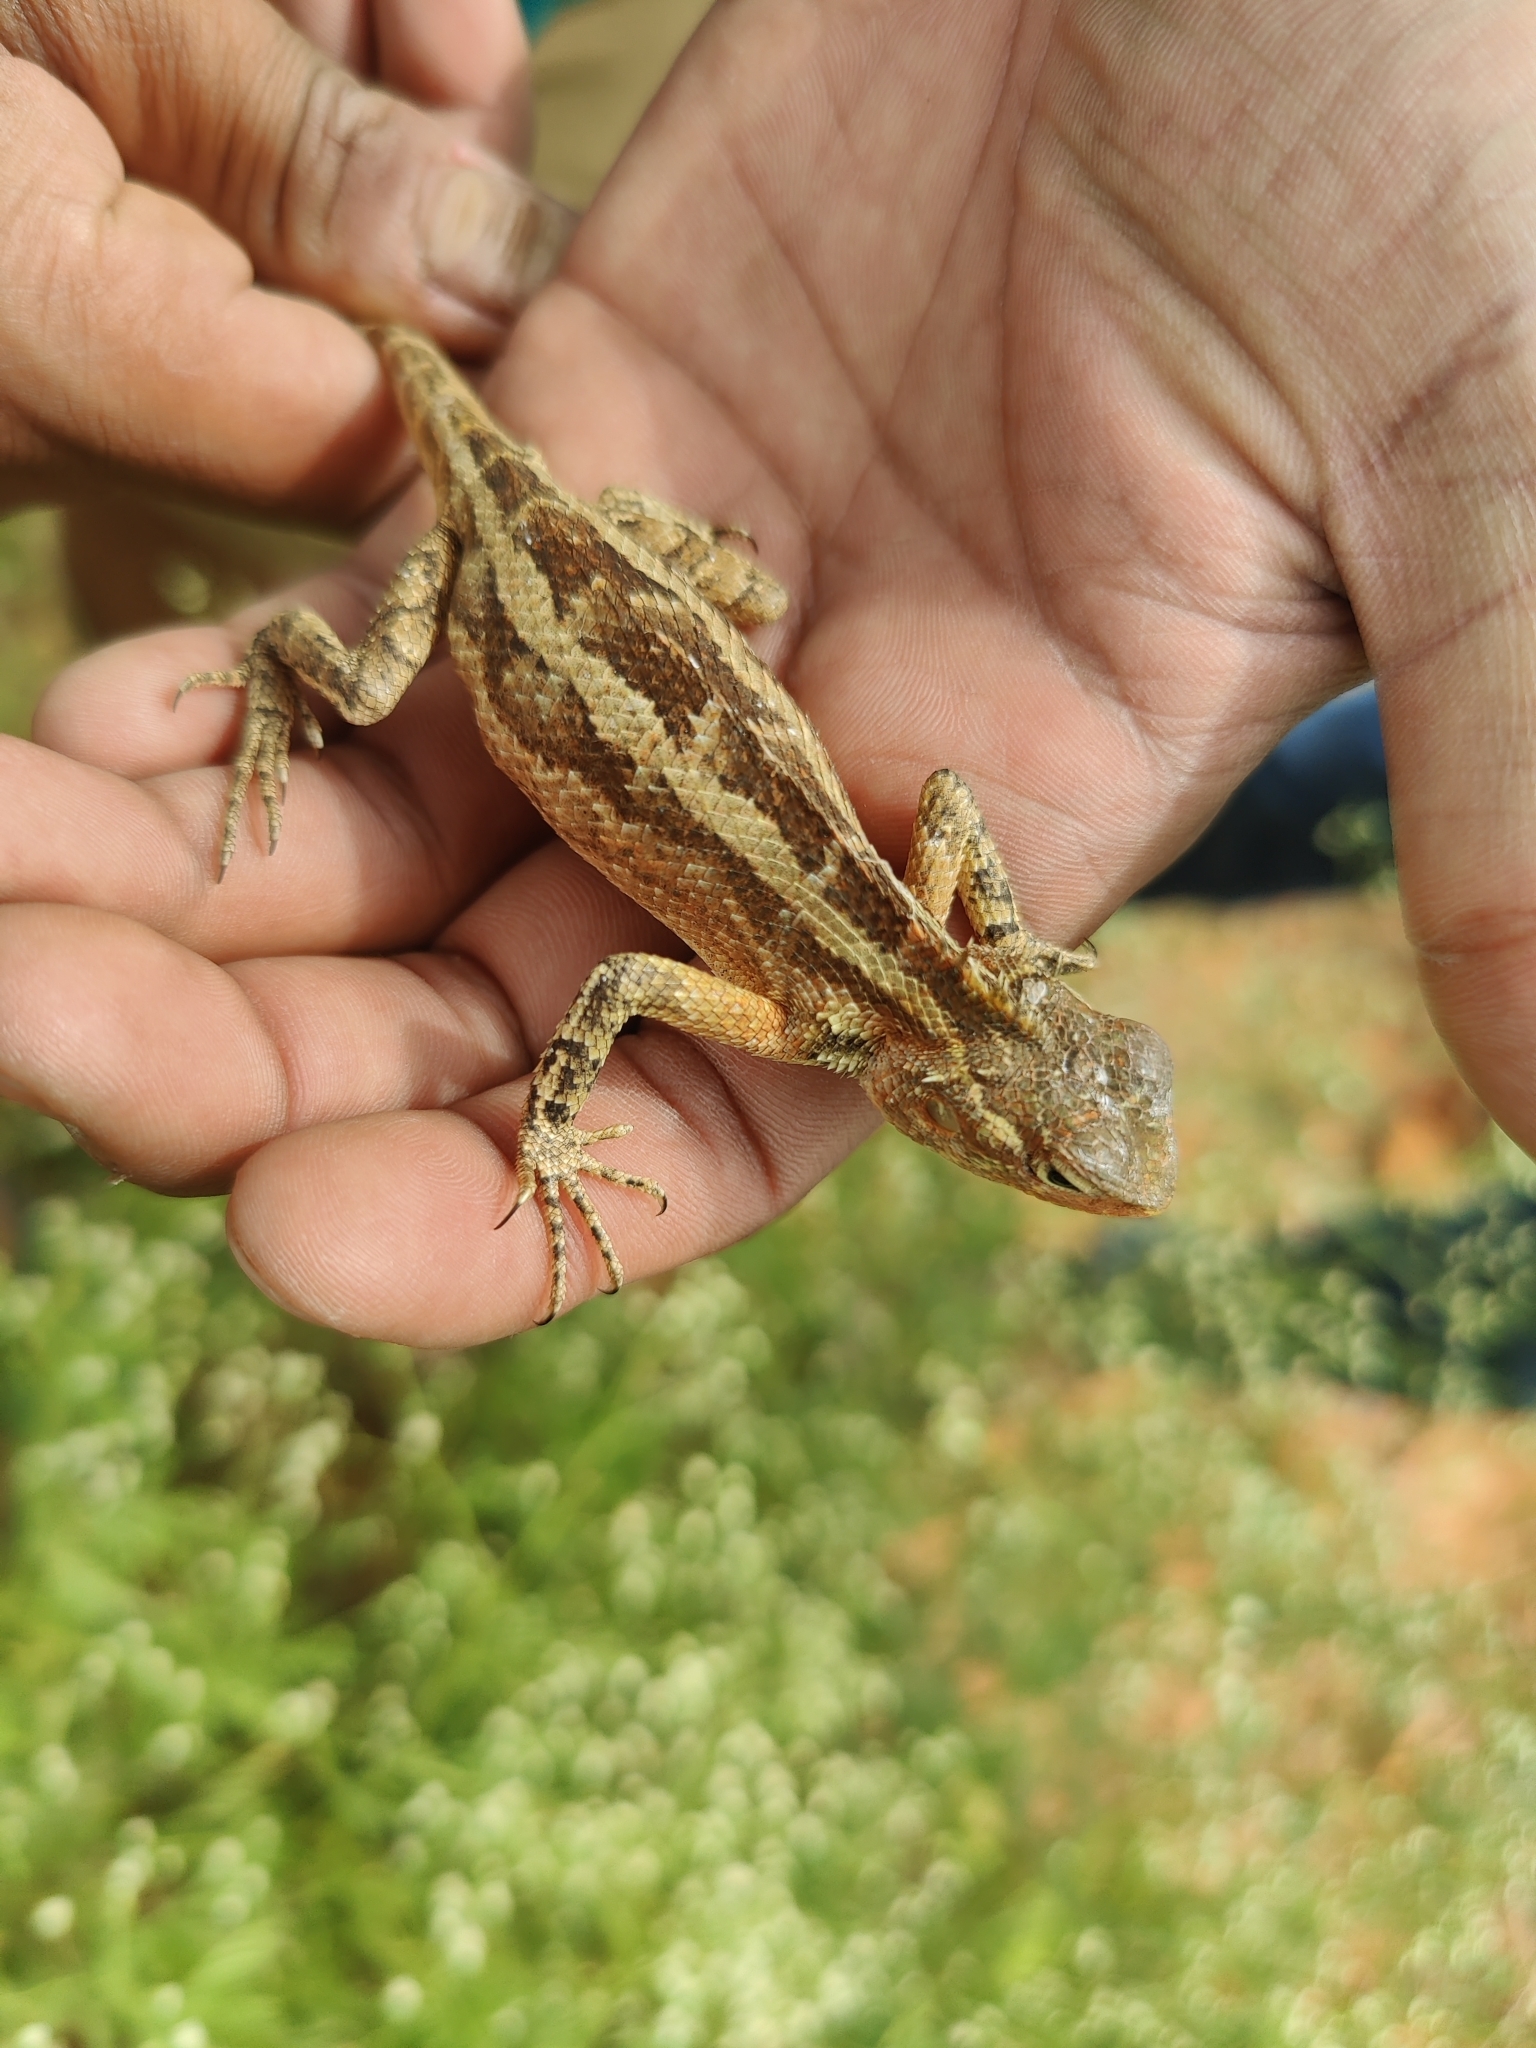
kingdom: Animalia
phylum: Chordata
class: Squamata
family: Agamidae
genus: Calotes
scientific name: Calotes versicolor
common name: Oriental garden lizard
